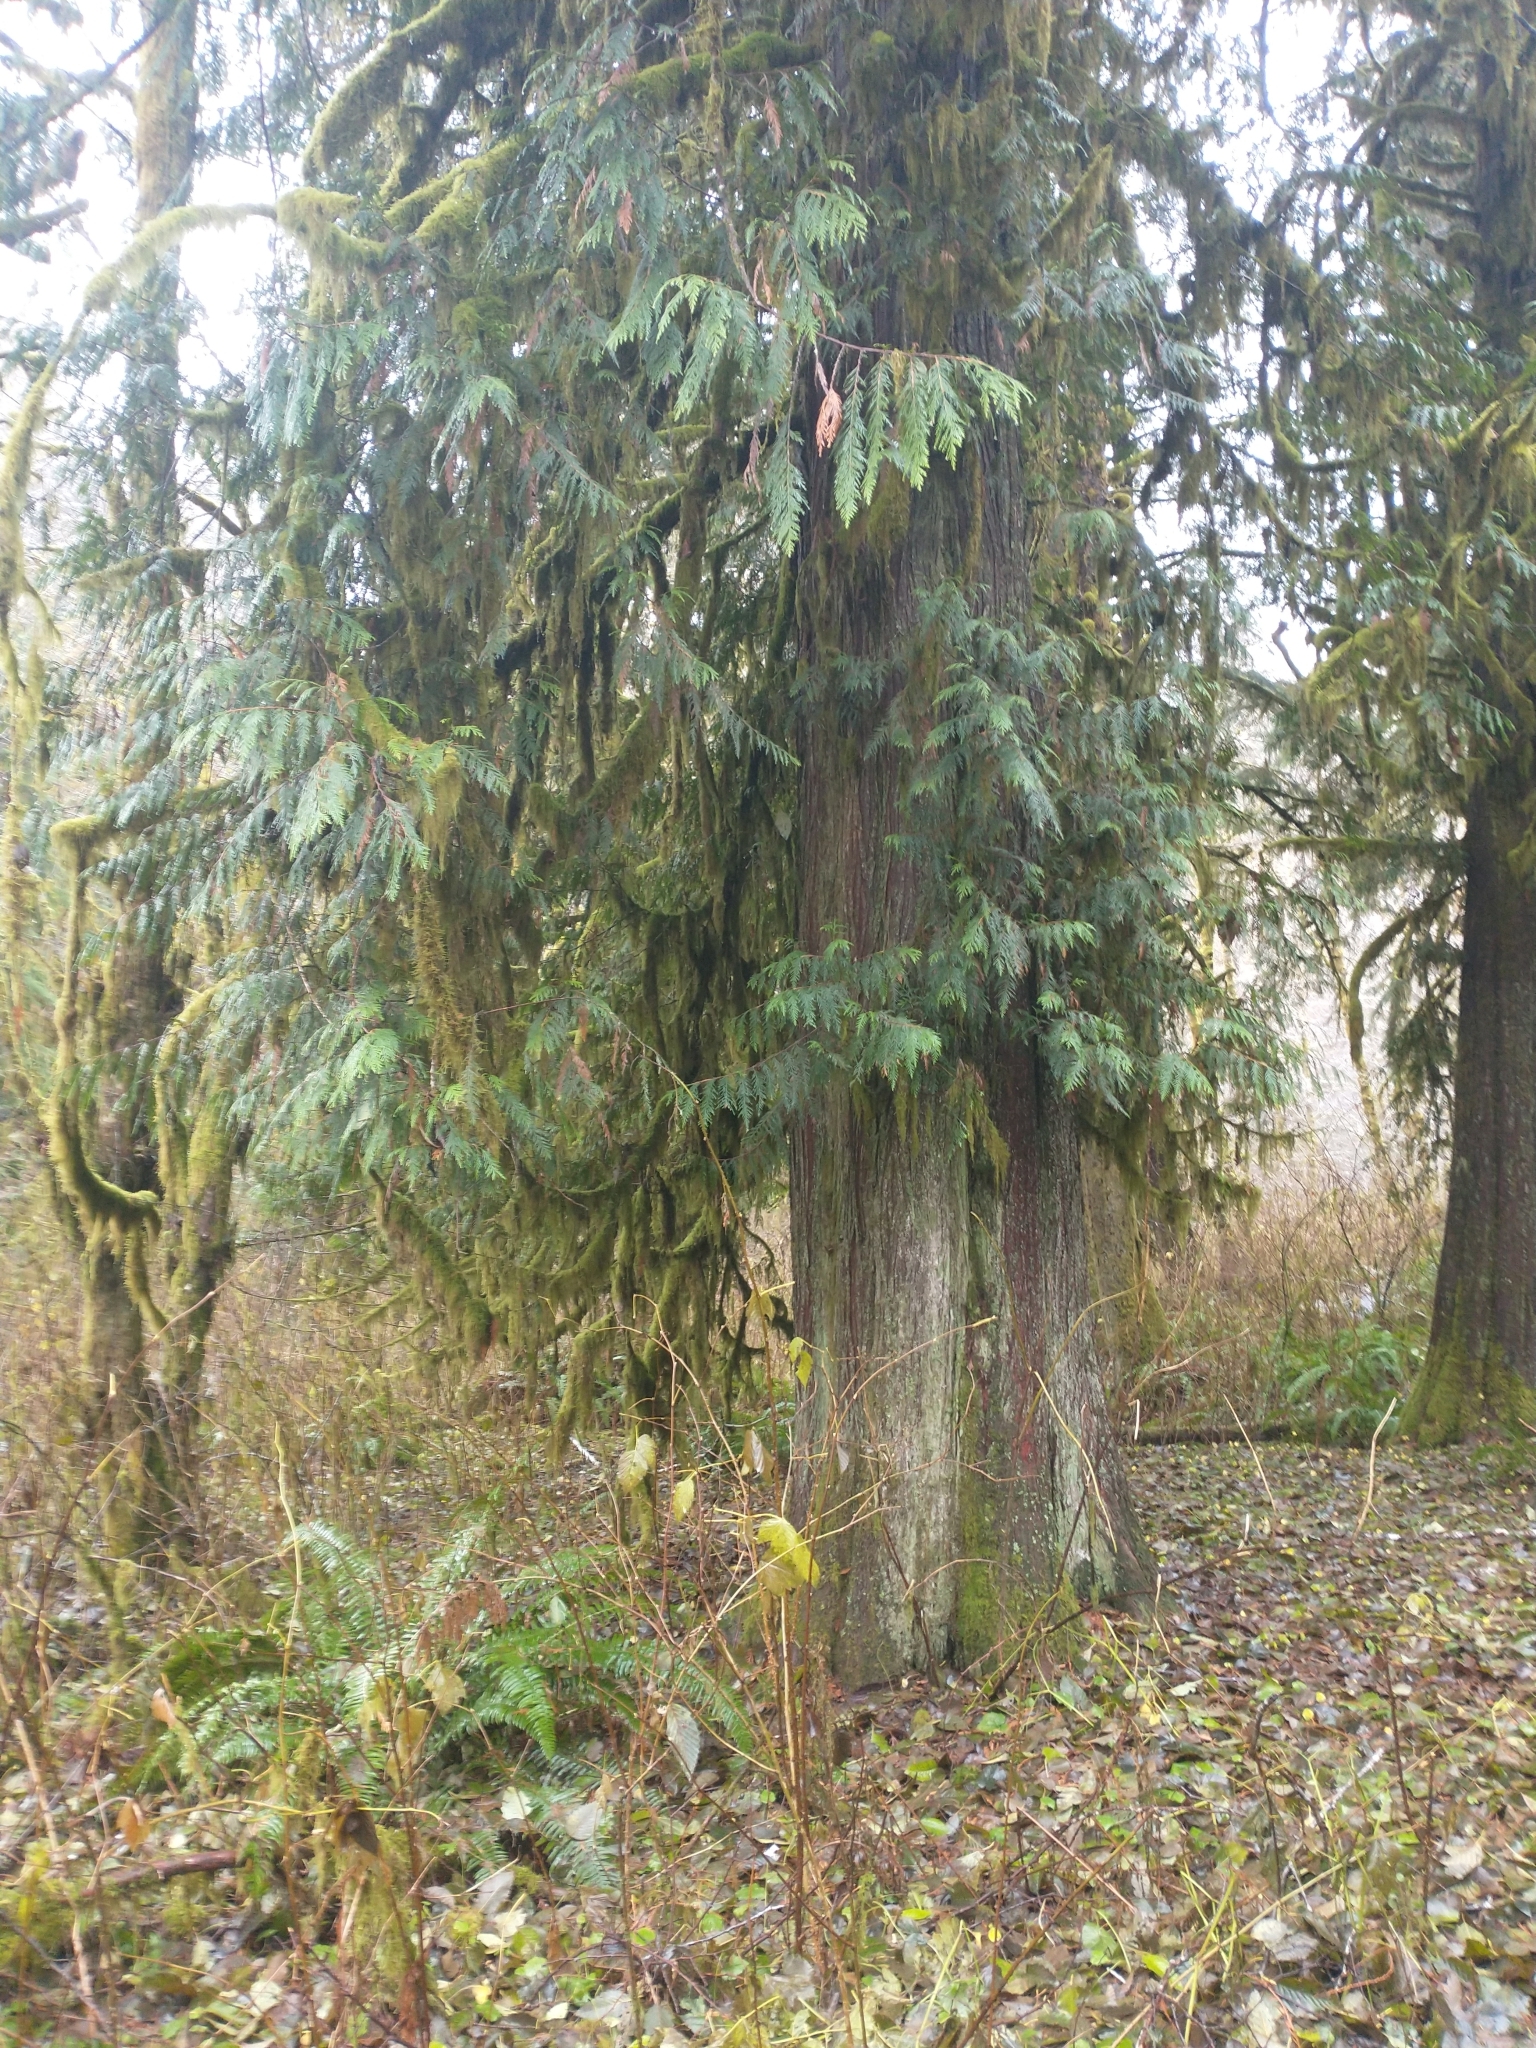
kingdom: Plantae
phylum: Tracheophyta
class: Pinopsida
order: Pinales
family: Cupressaceae
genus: Thuja
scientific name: Thuja plicata
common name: Western red-cedar
